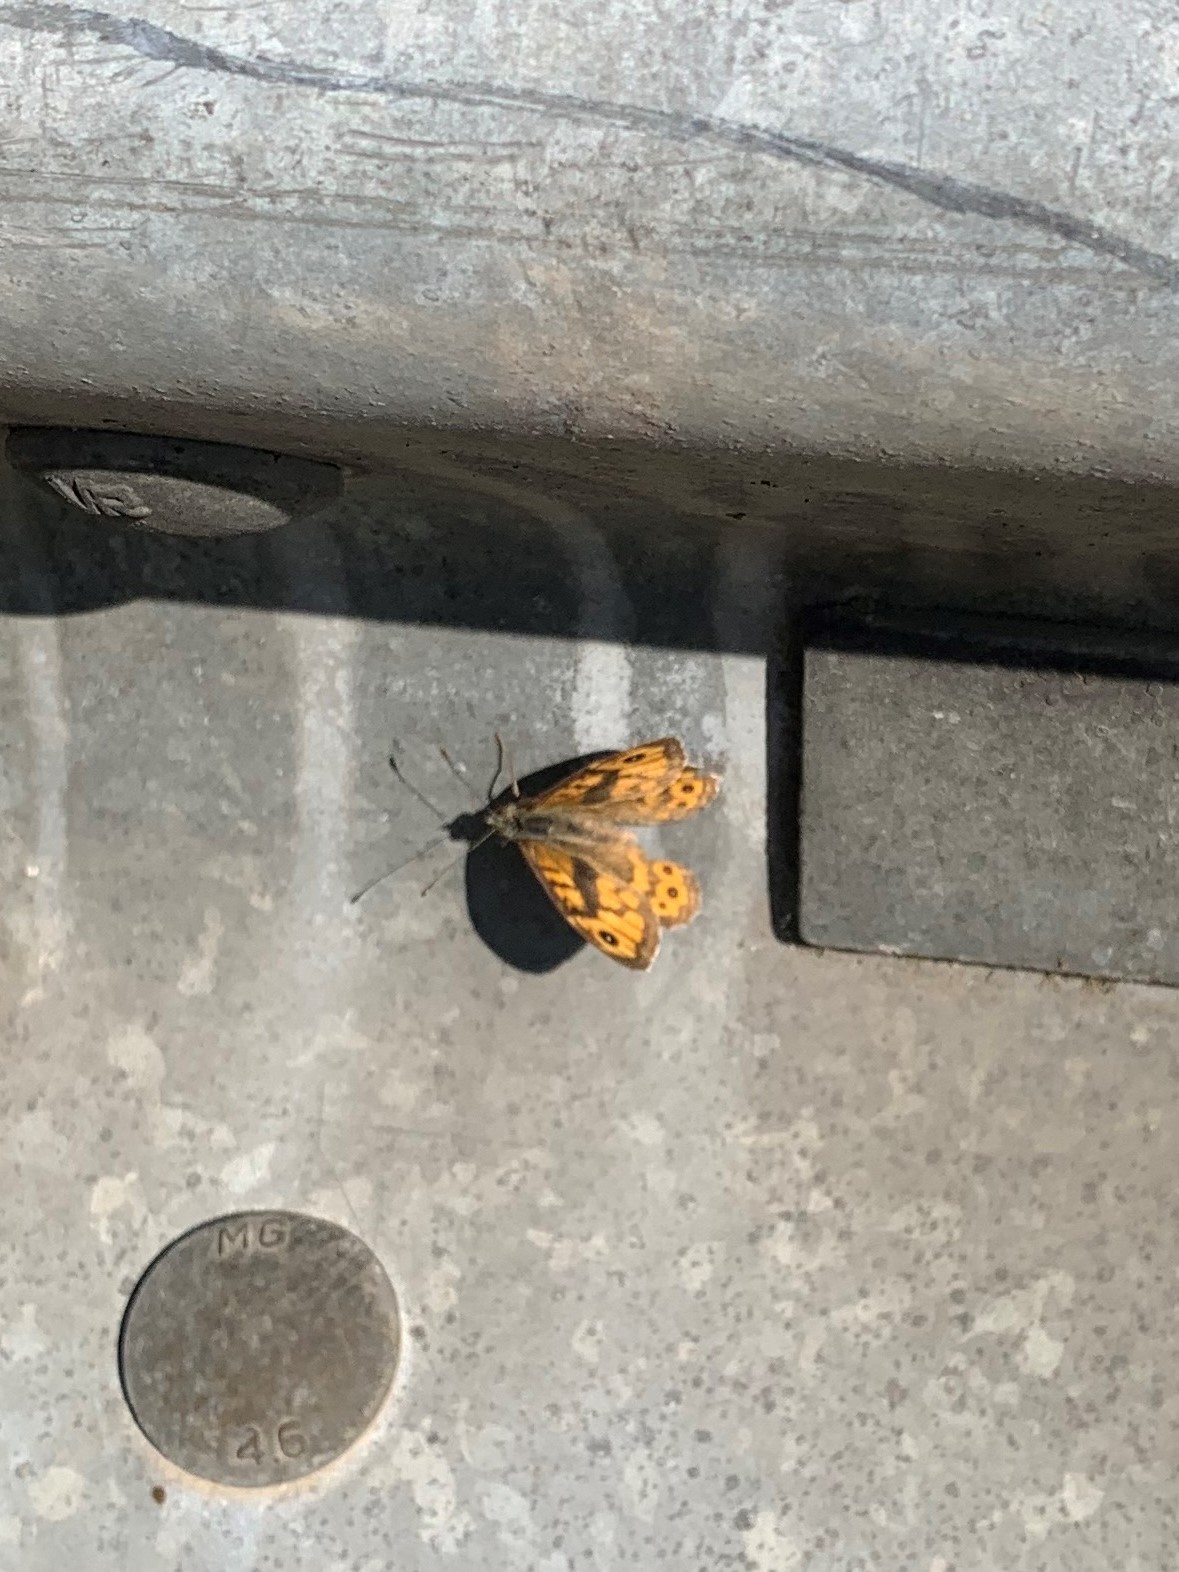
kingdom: Animalia
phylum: Arthropoda
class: Insecta
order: Lepidoptera
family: Nymphalidae
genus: Pararge
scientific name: Pararge Lasiommata megera
